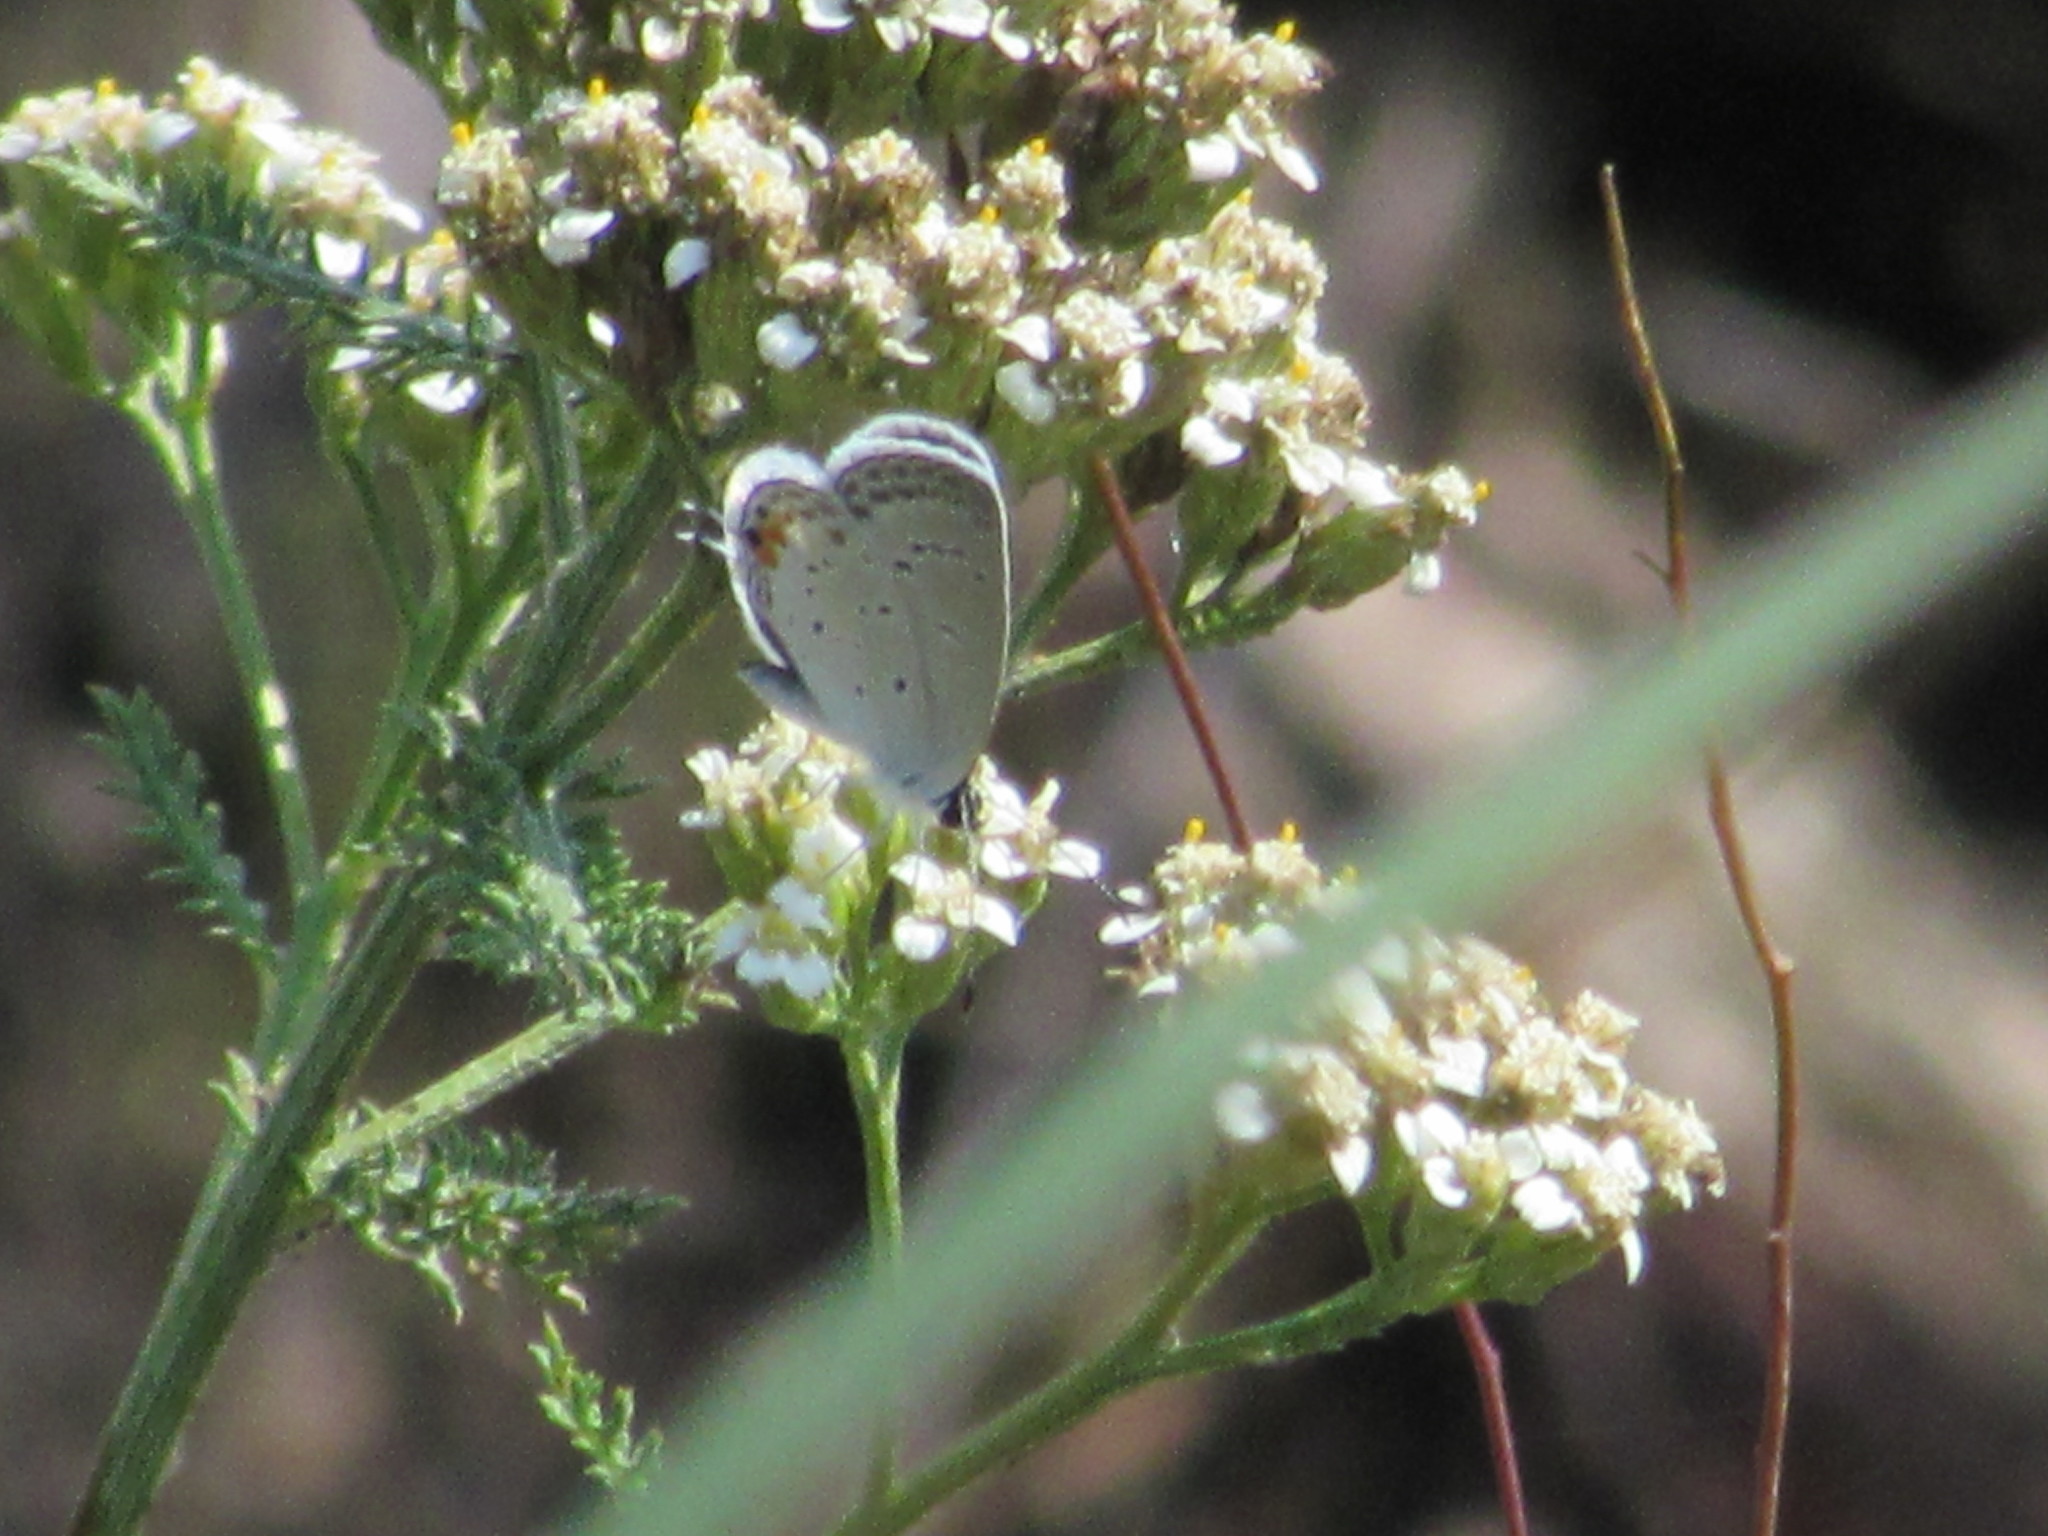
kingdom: Animalia
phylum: Arthropoda
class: Insecta
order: Lepidoptera
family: Lycaenidae
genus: Elkalyce
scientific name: Elkalyce comyntas
